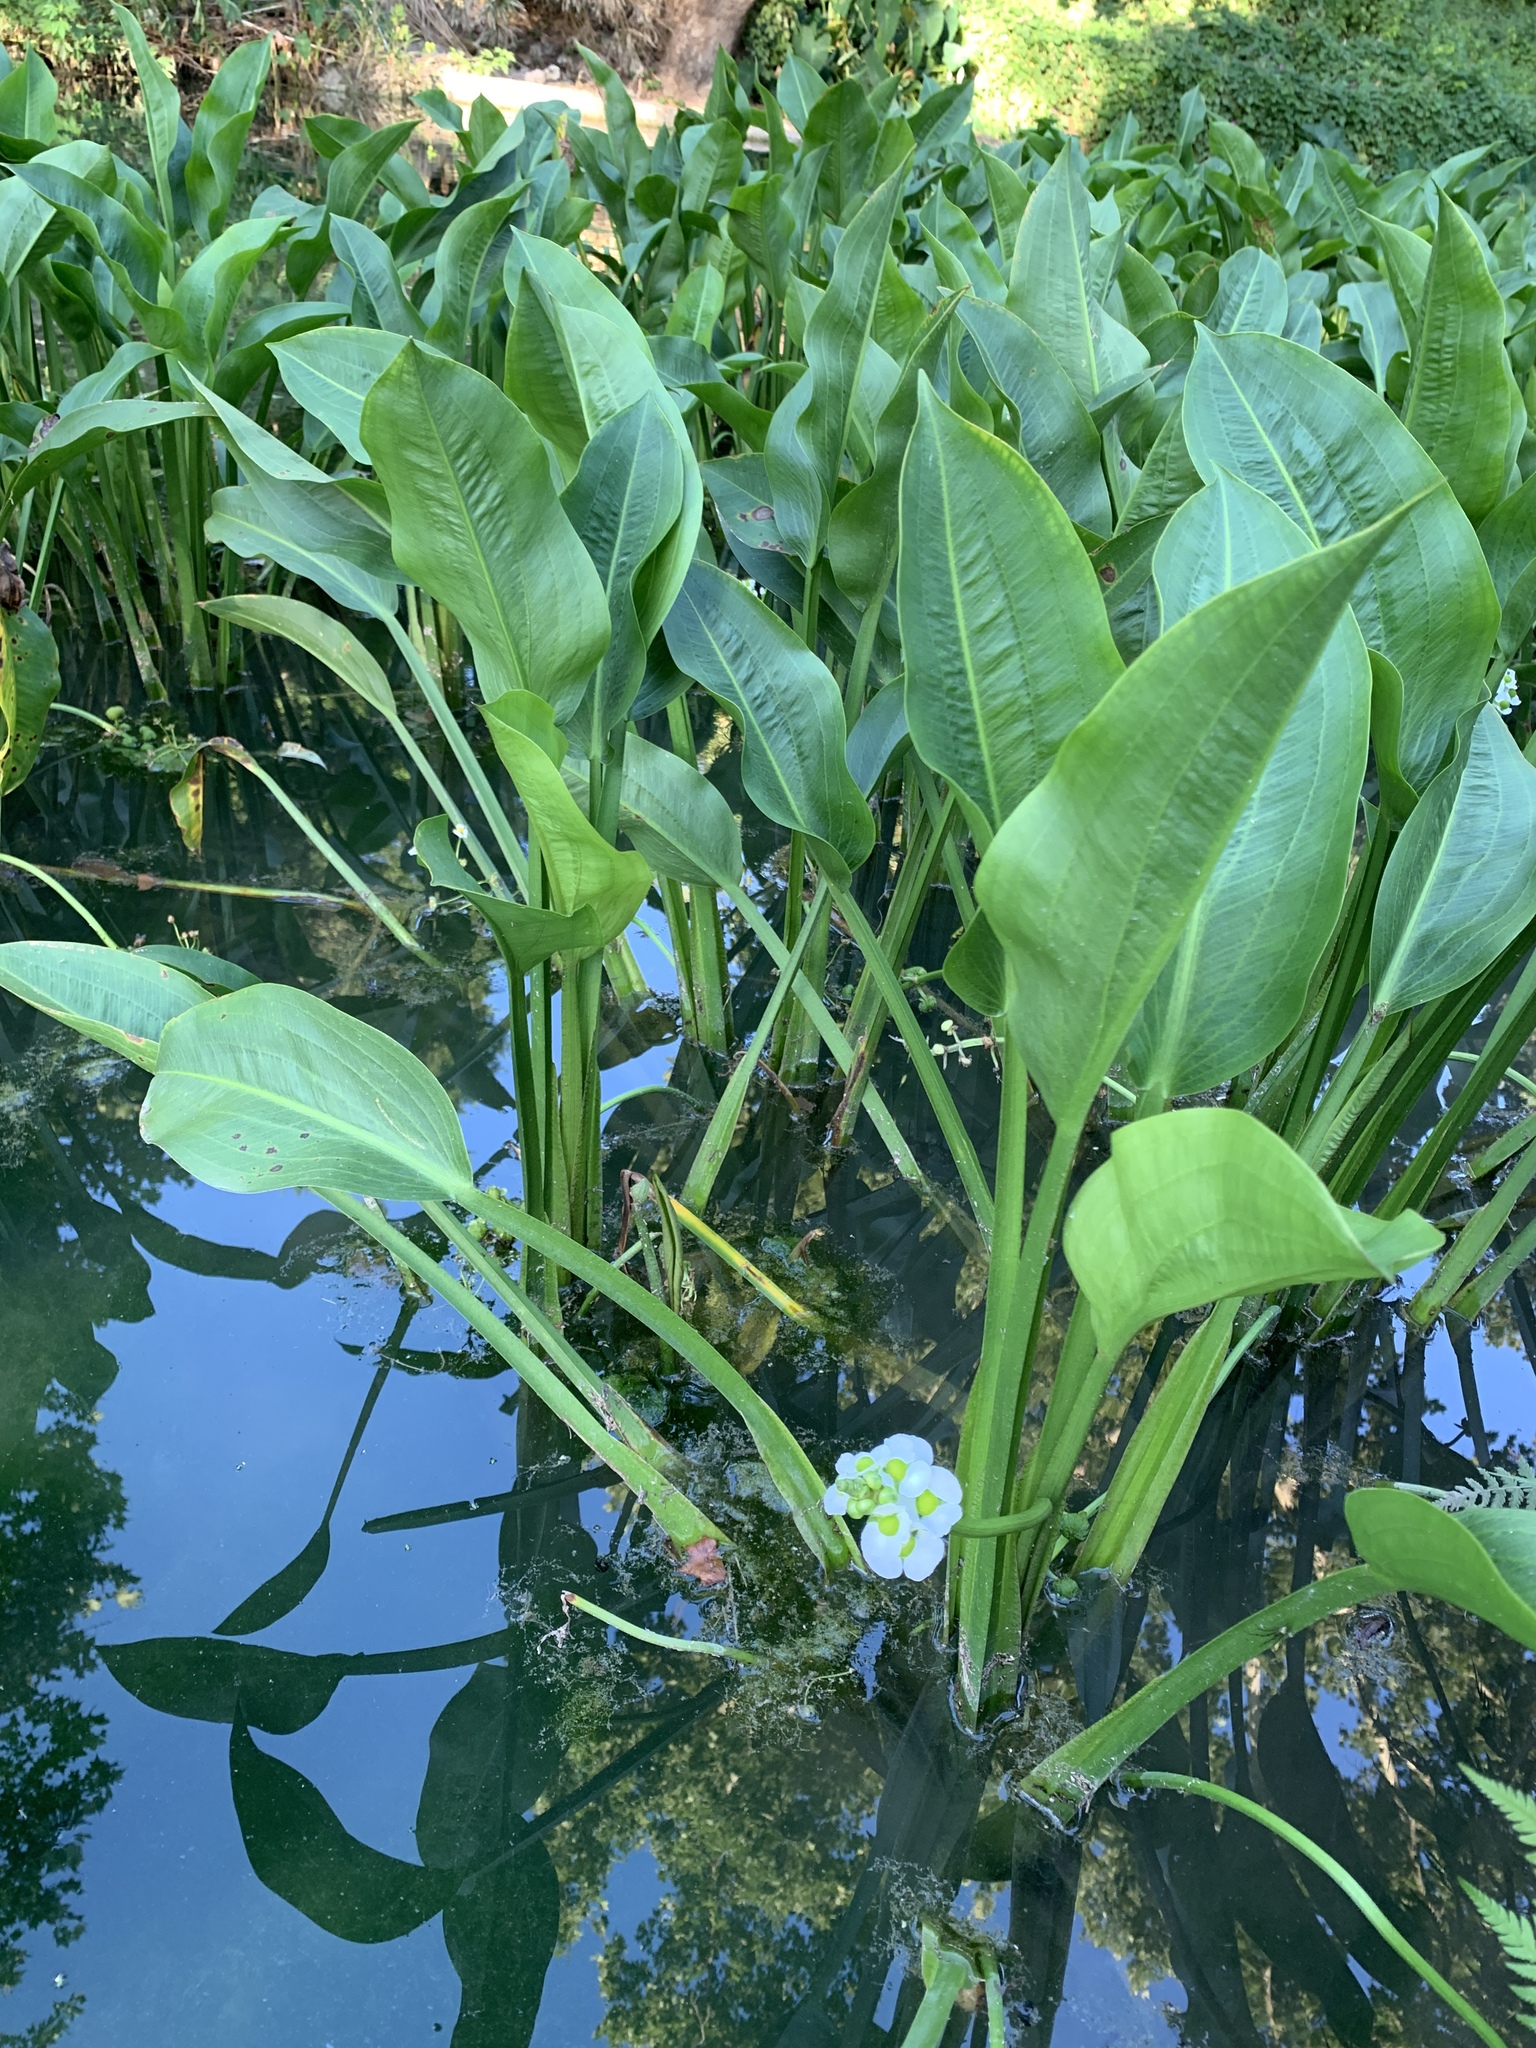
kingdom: Plantae
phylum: Tracheophyta
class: Liliopsida
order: Alismatales
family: Alismataceae
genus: Sagittaria
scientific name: Sagittaria platyphylla
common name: Broad-leaf arrowhead
